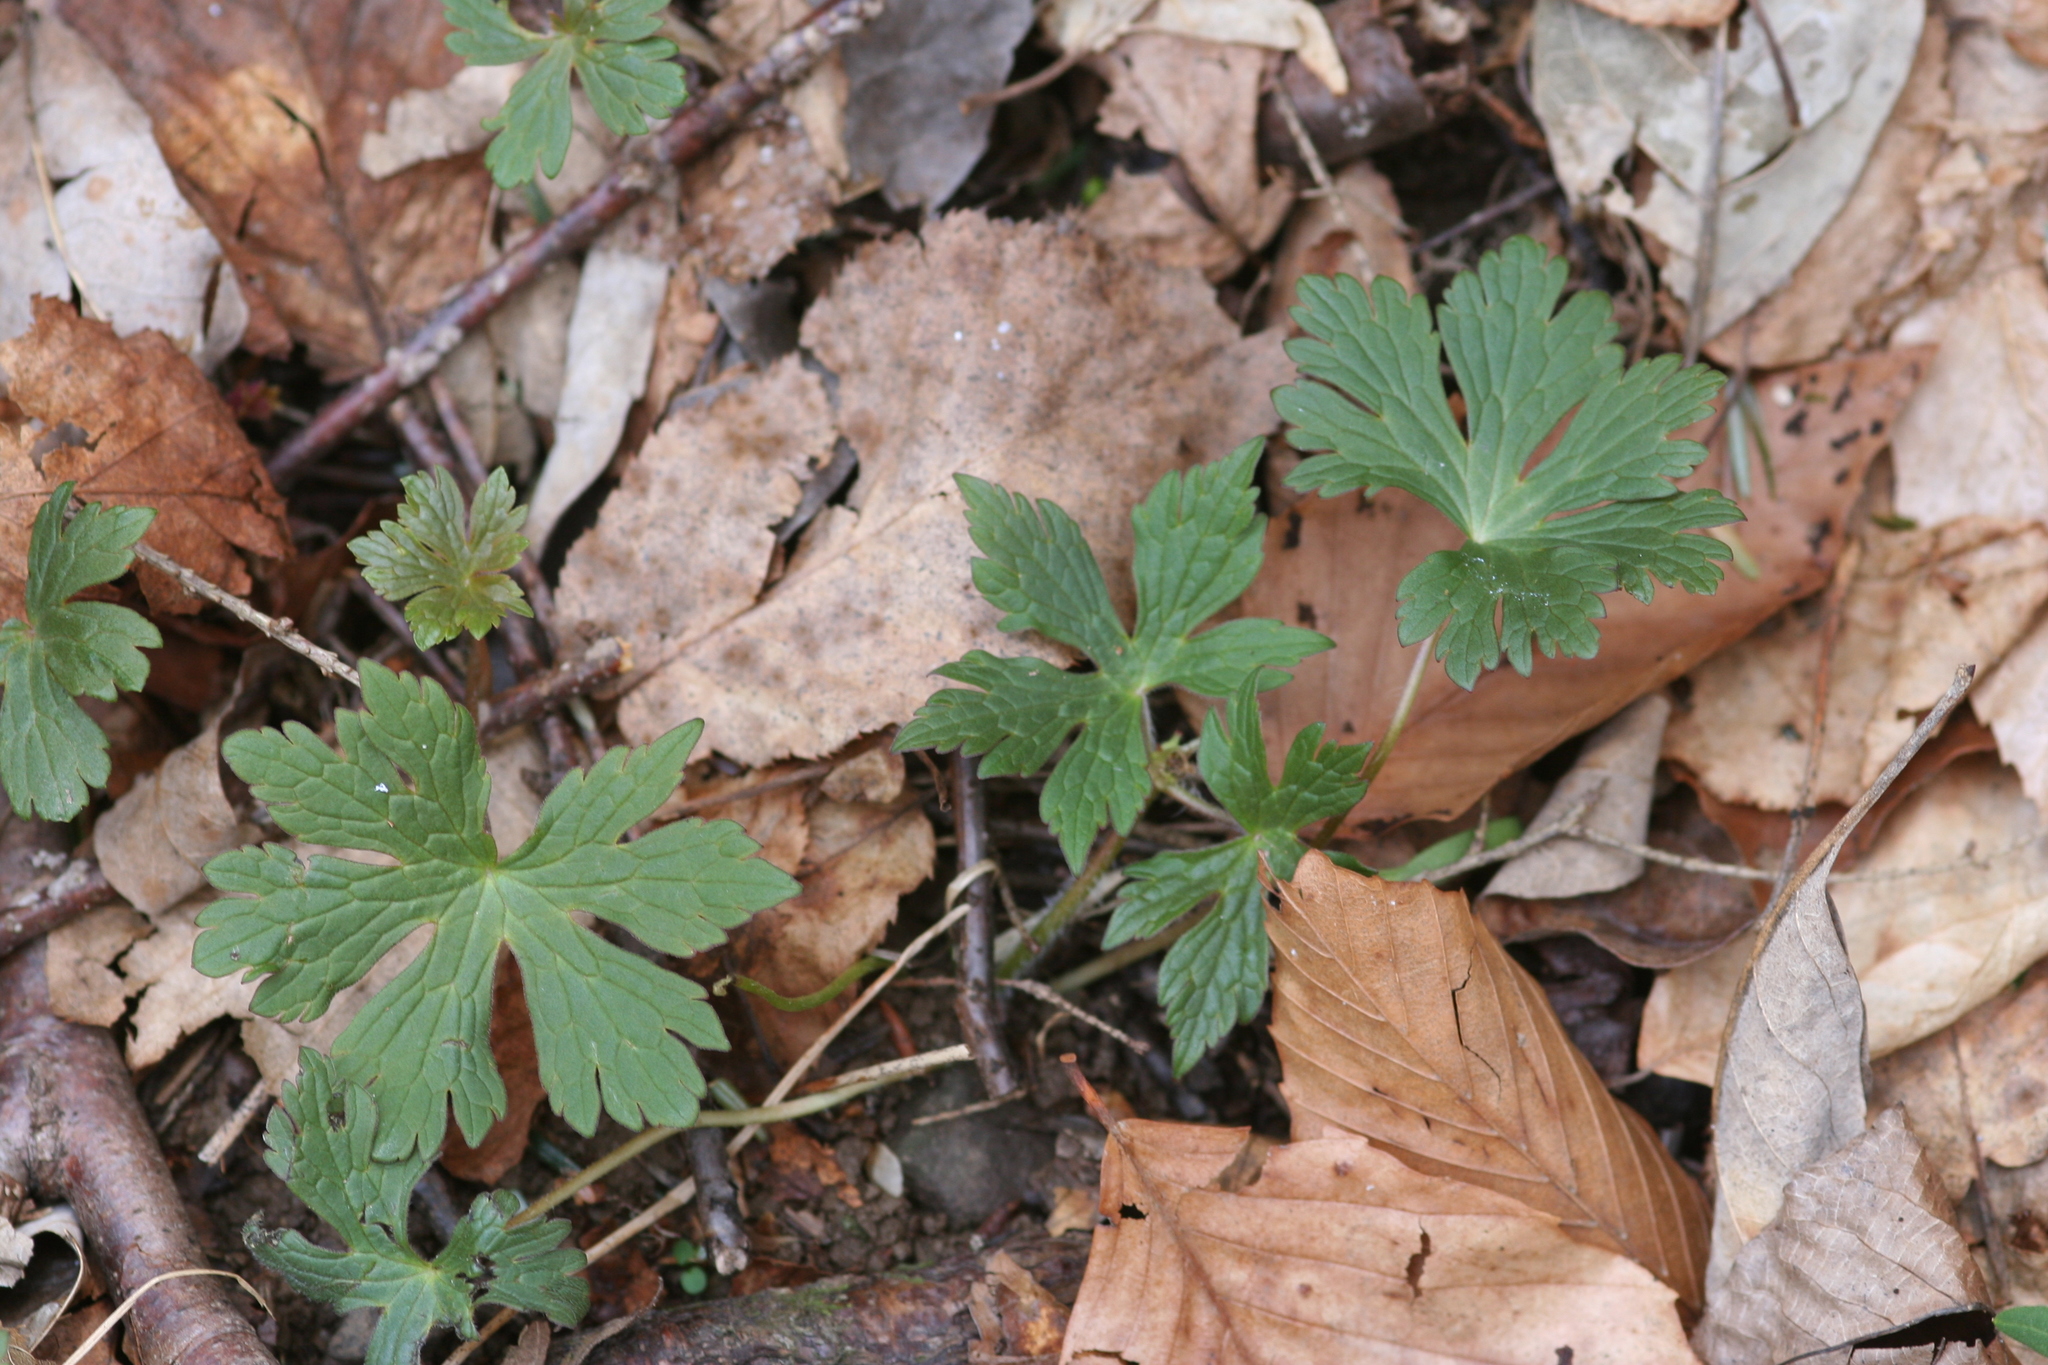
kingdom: Plantae
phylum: Tracheophyta
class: Magnoliopsida
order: Geraniales
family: Geraniaceae
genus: Geranium
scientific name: Geranium maculatum
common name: Spotted geranium
